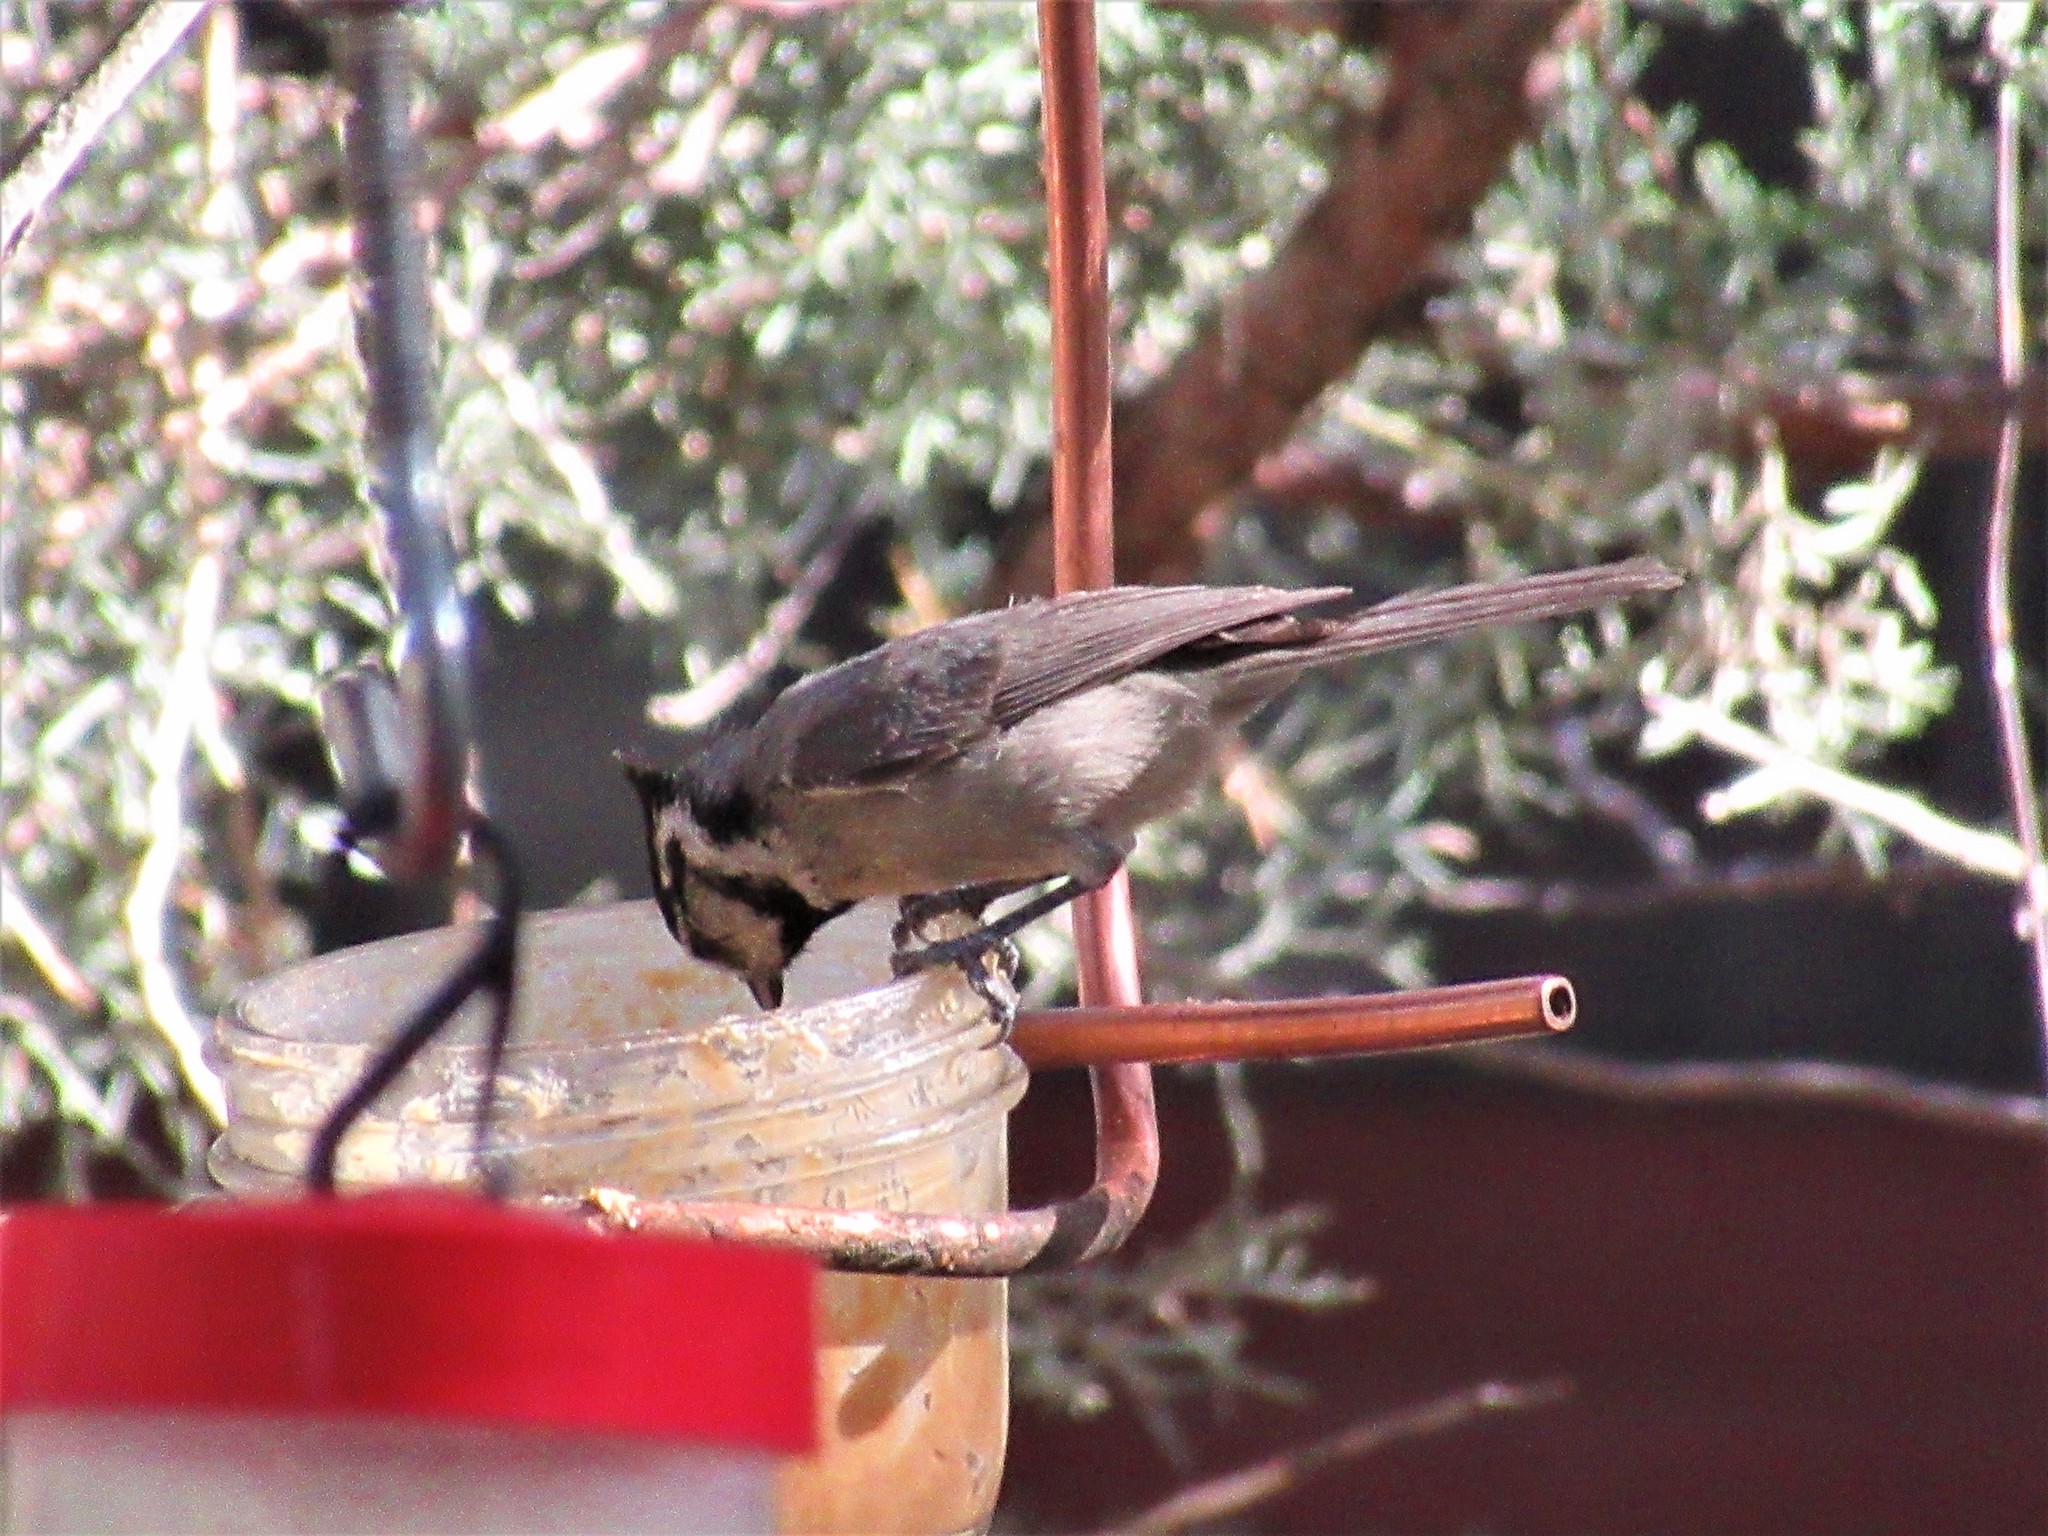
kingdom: Animalia
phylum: Chordata
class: Aves
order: Passeriformes
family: Paridae
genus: Baeolophus
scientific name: Baeolophus wollweberi
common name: Bridled titmouse
